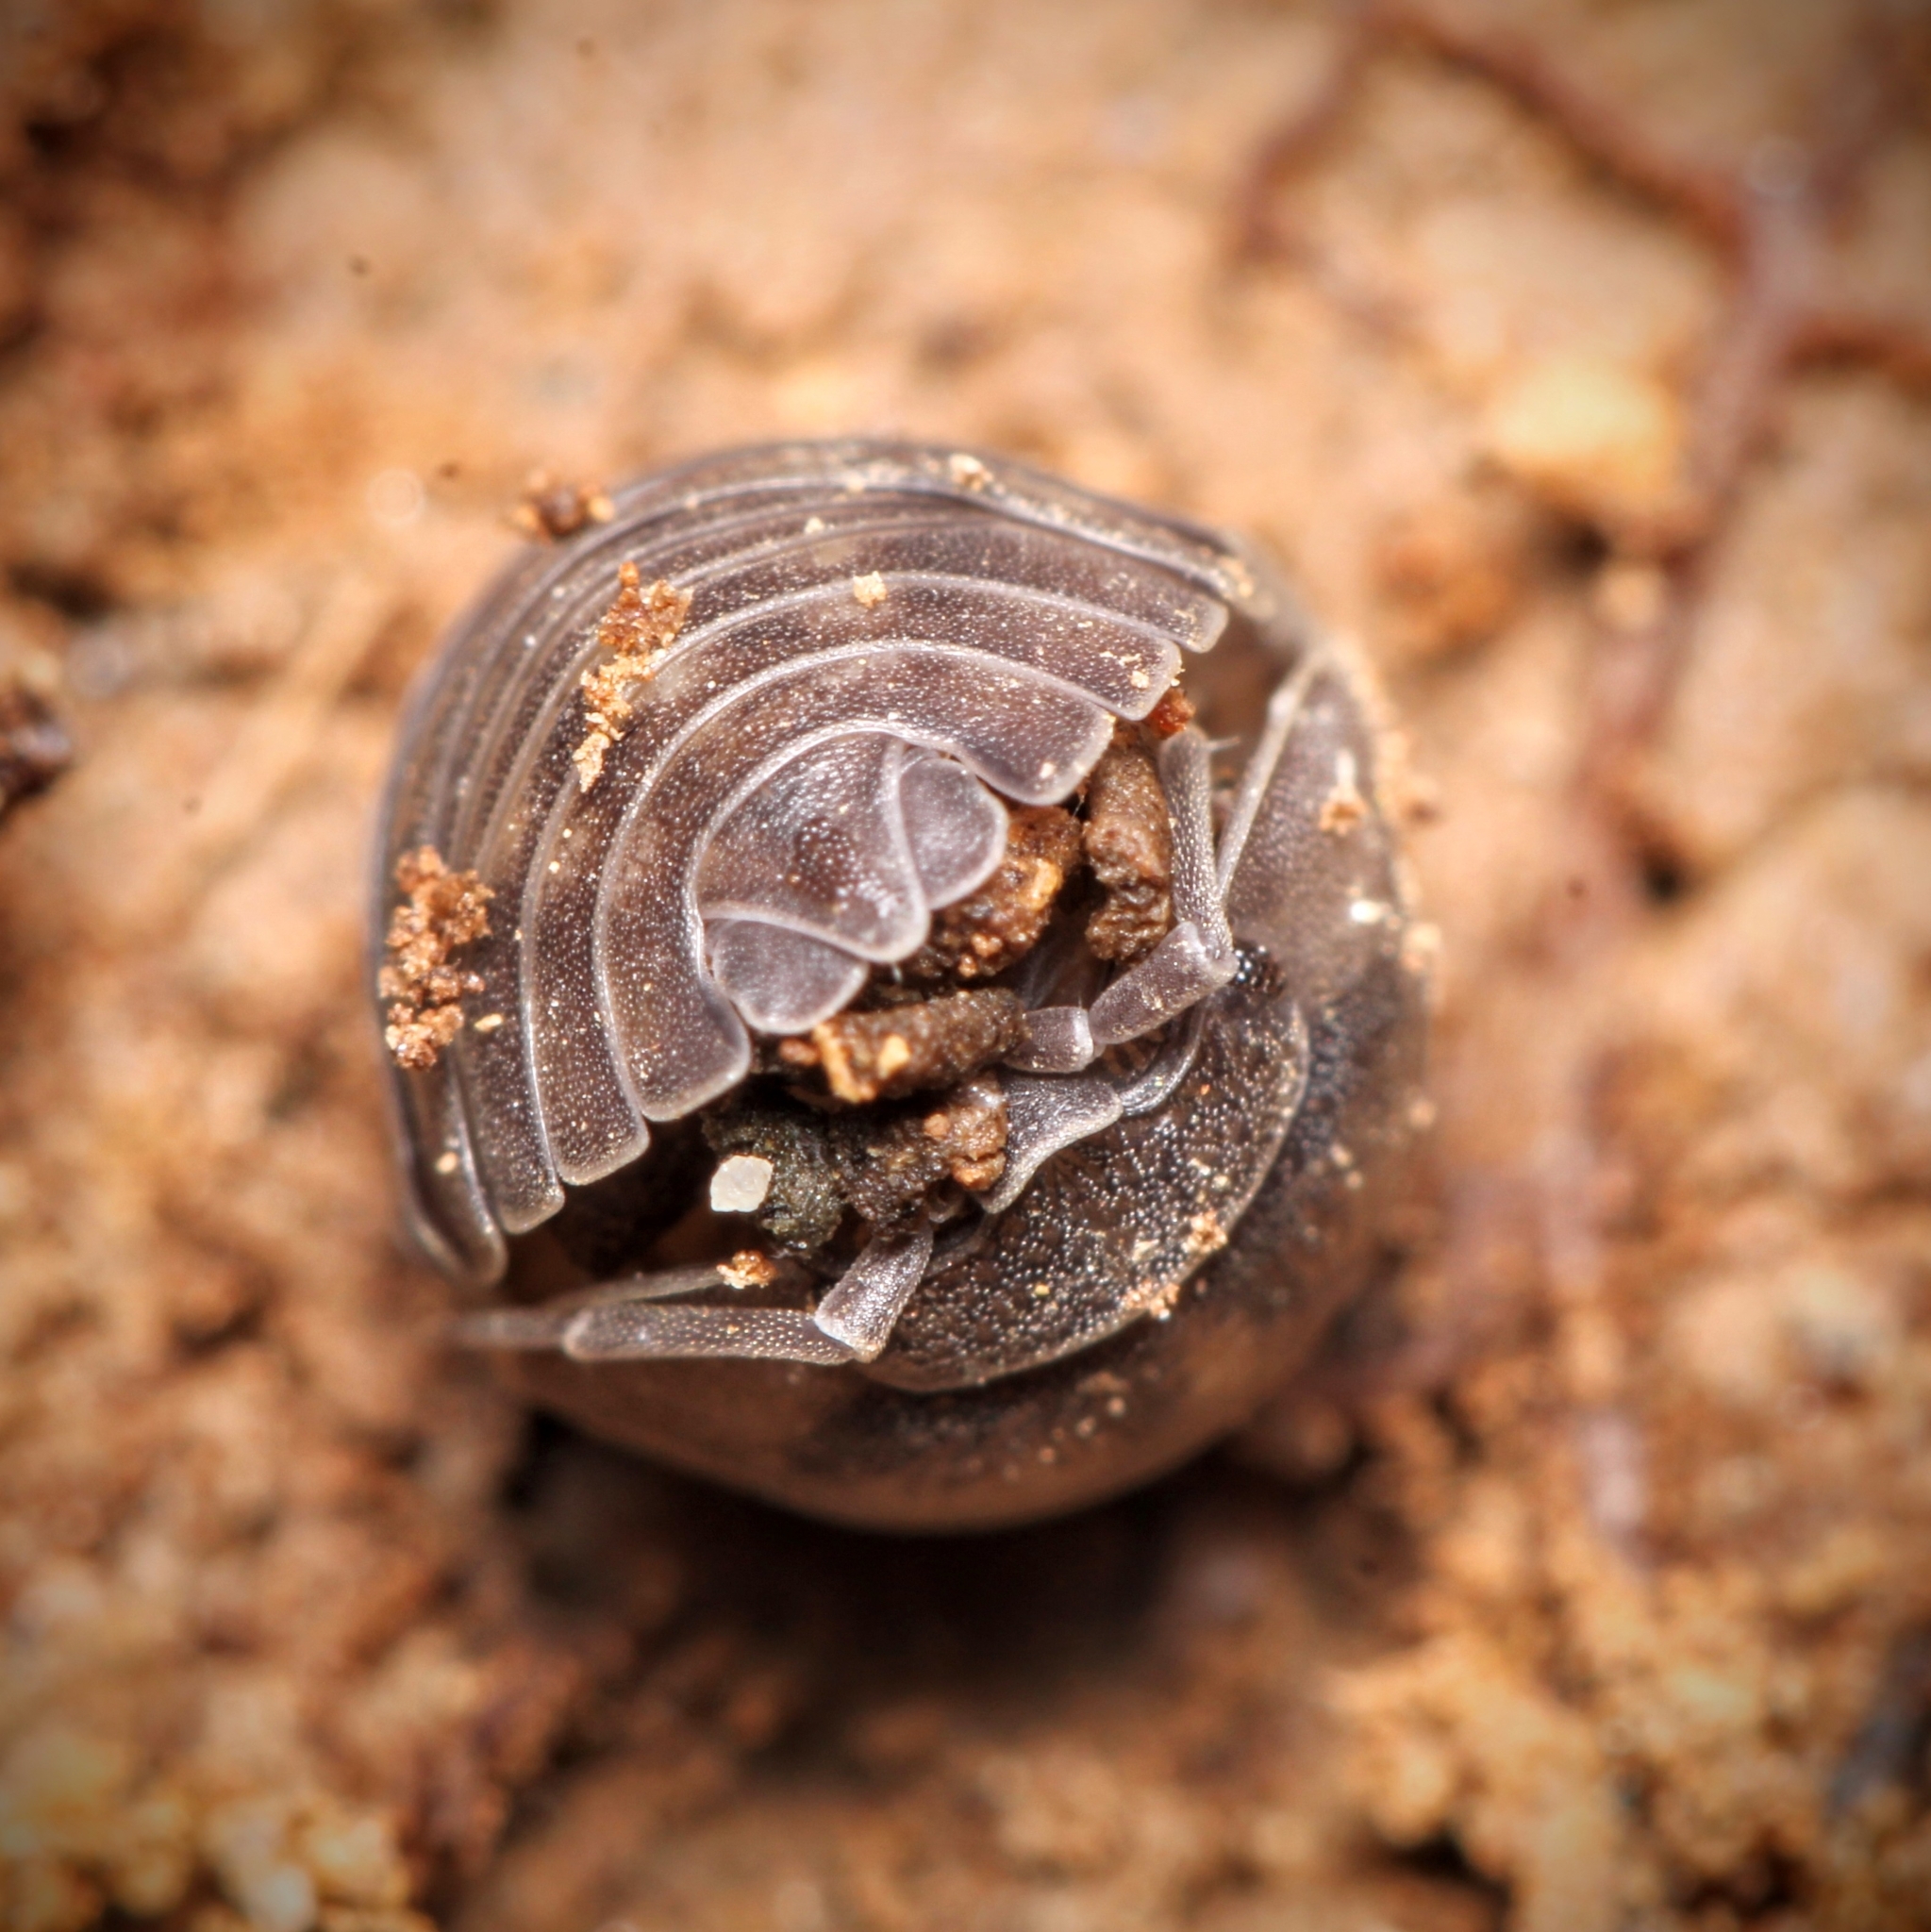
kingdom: Animalia
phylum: Arthropoda
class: Malacostraca
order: Isopoda
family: Armadillidiidae
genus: Armadillidium
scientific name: Armadillidium nasatum
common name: Isopod
